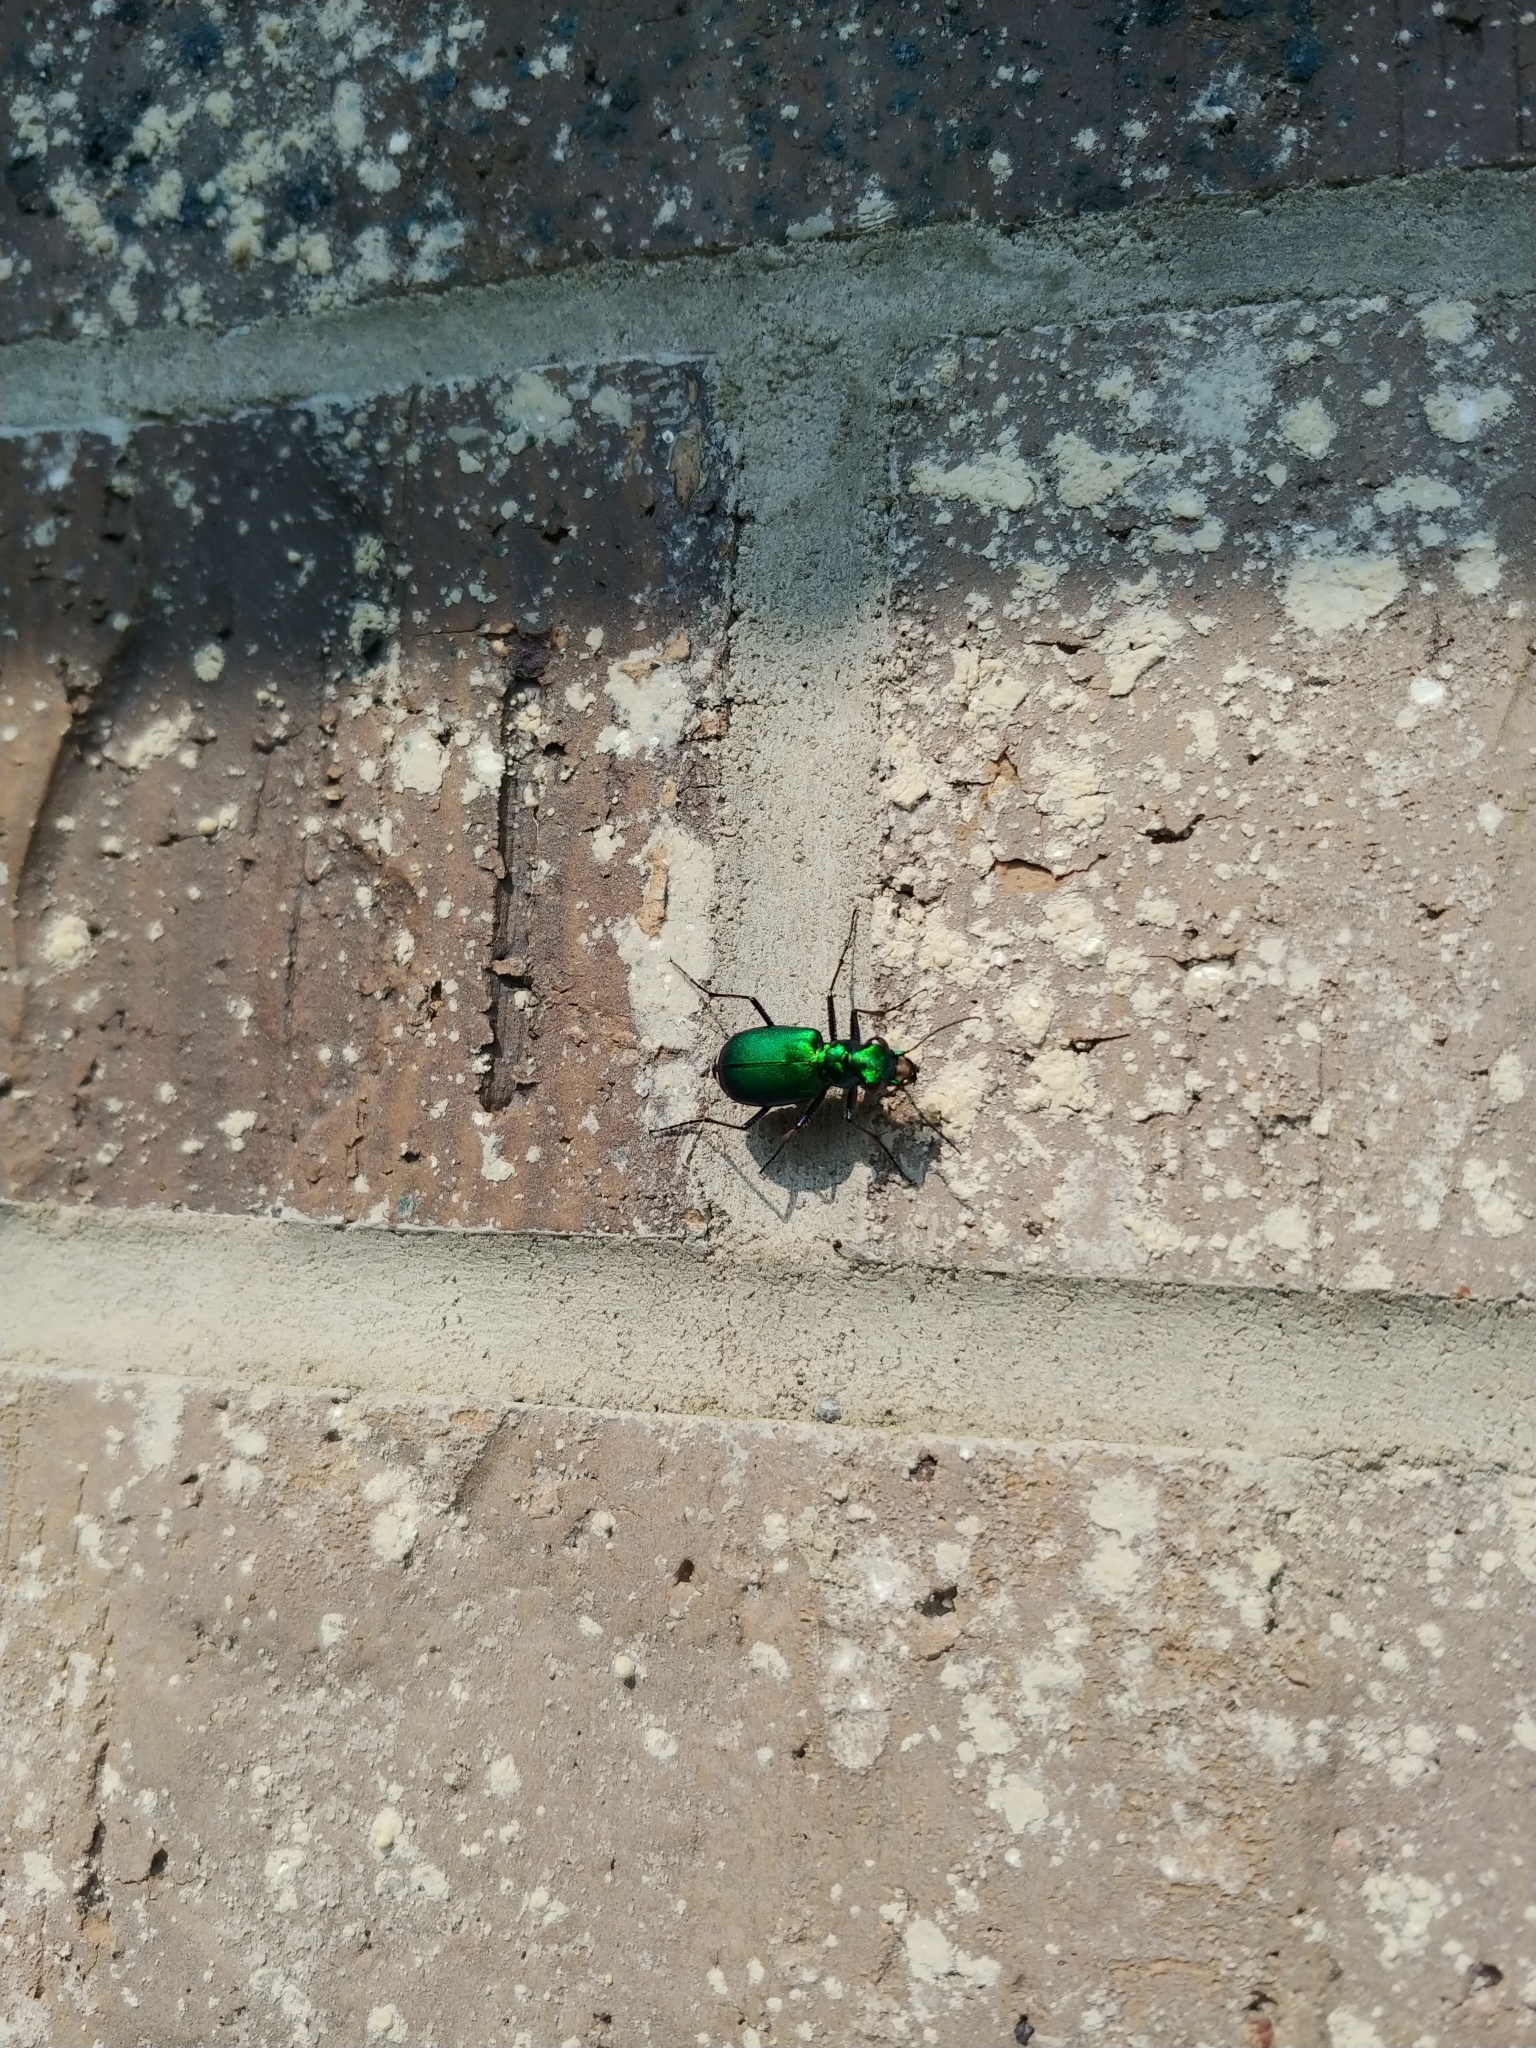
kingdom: Animalia
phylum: Arthropoda
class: Insecta
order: Coleoptera
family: Carabidae
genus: Cicindela
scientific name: Cicindela sexguttata
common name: Six-spotted tiger beetle
